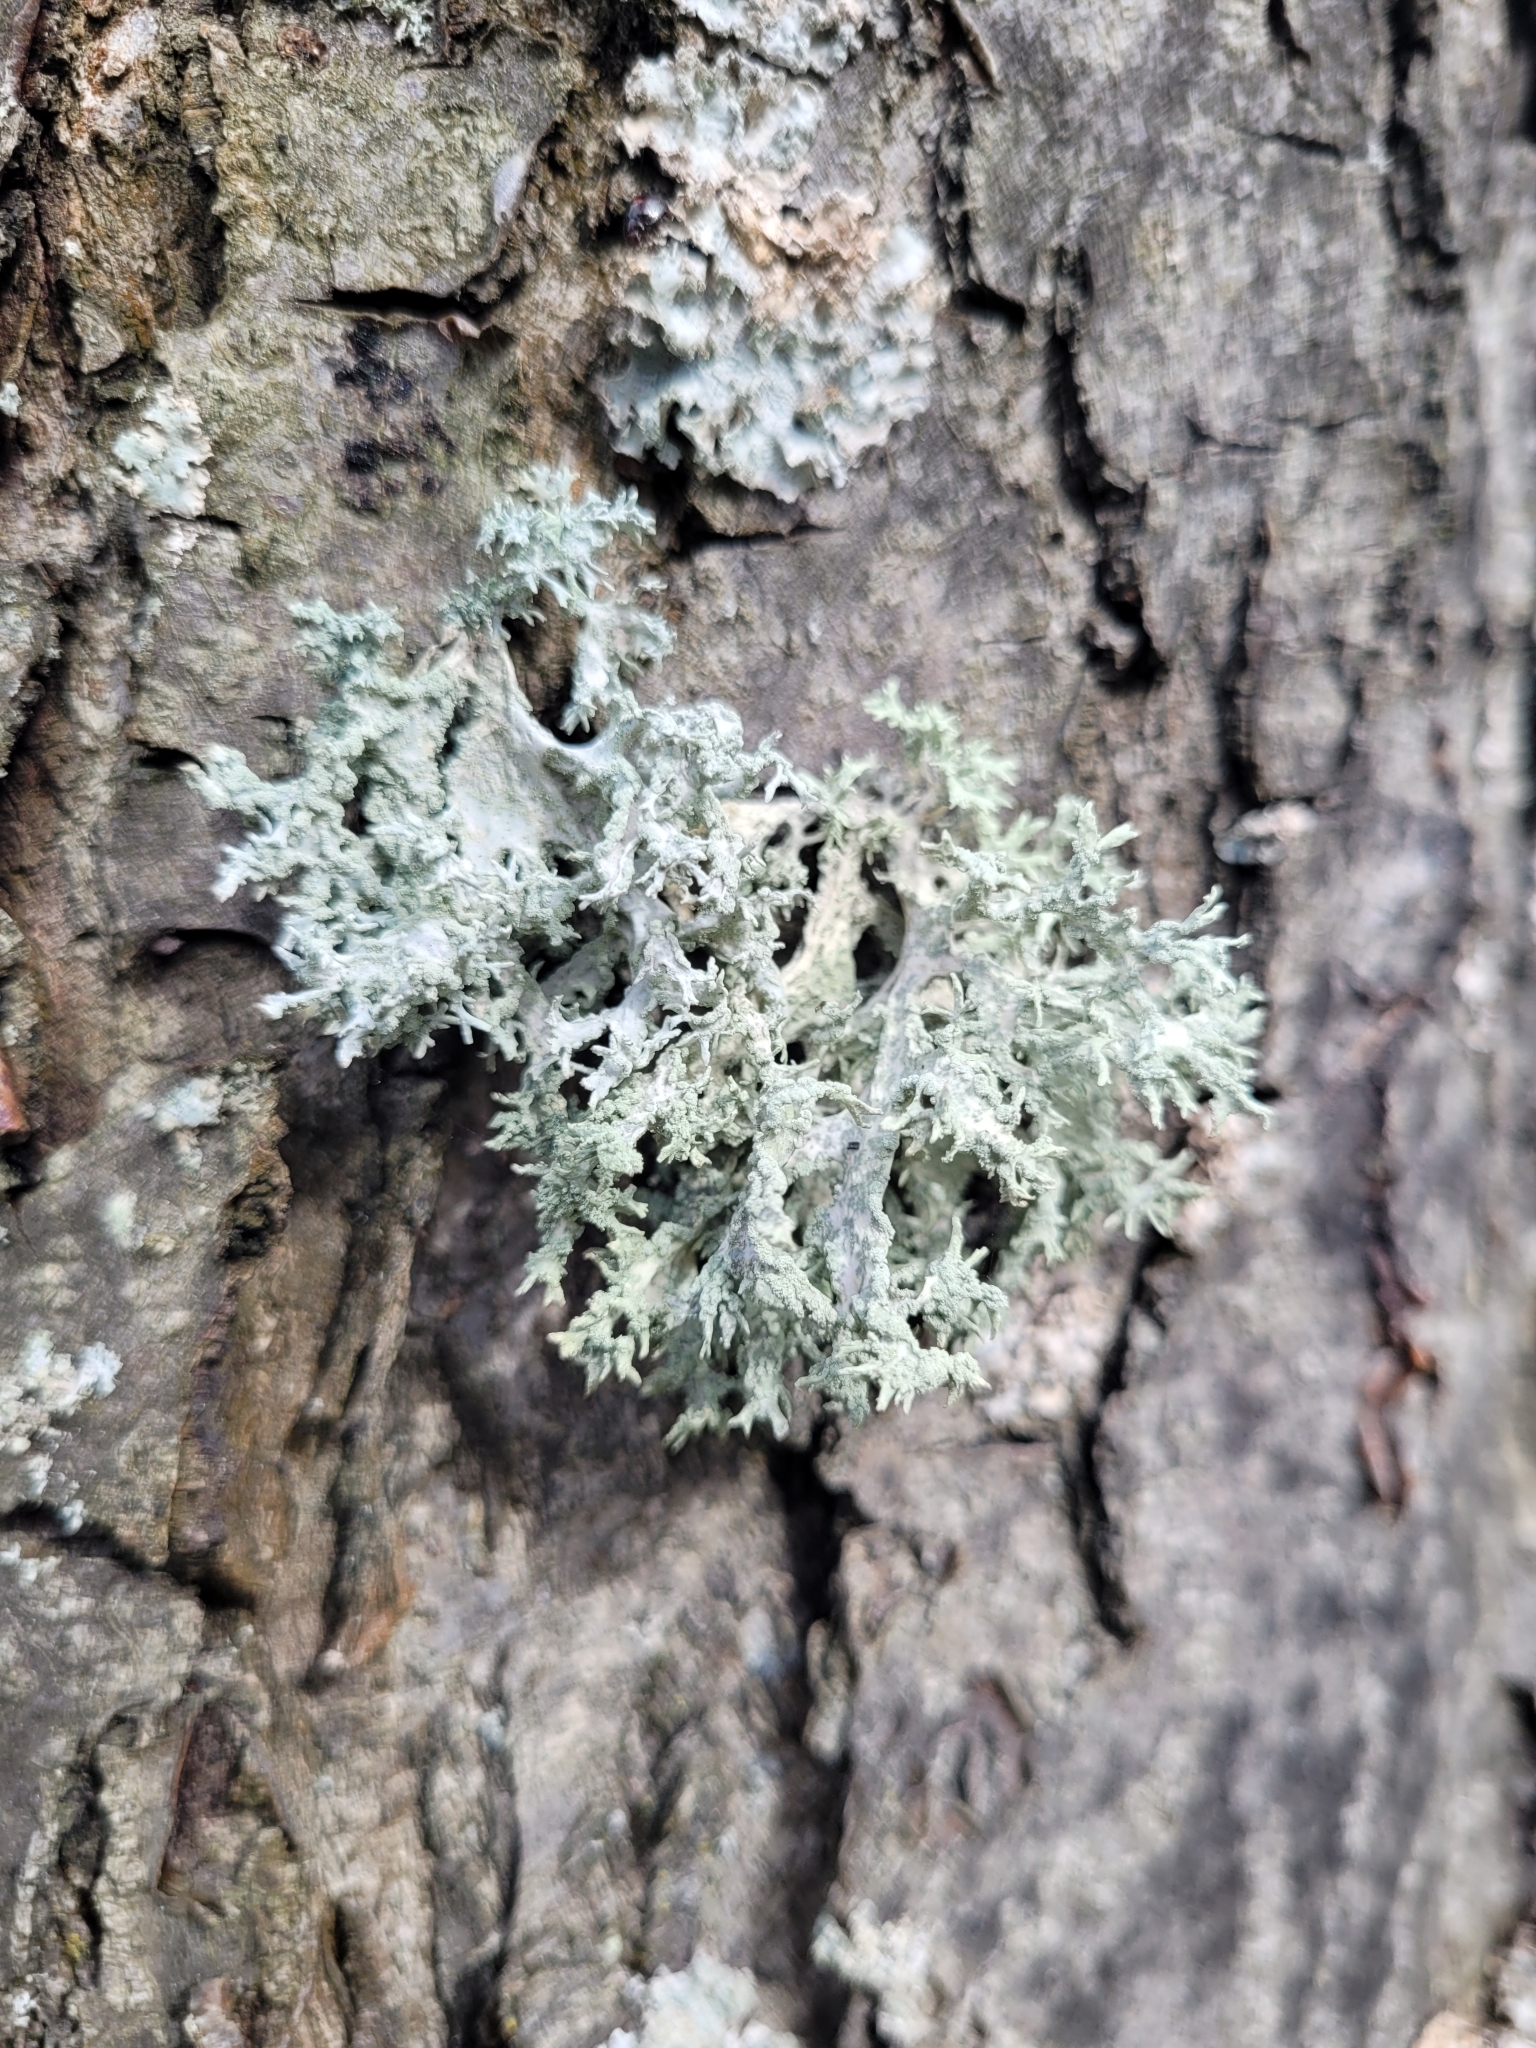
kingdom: Fungi
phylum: Ascomycota
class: Lecanoromycetes
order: Lecanorales
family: Parmeliaceae
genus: Evernia
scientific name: Evernia prunastri
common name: Oak moss
